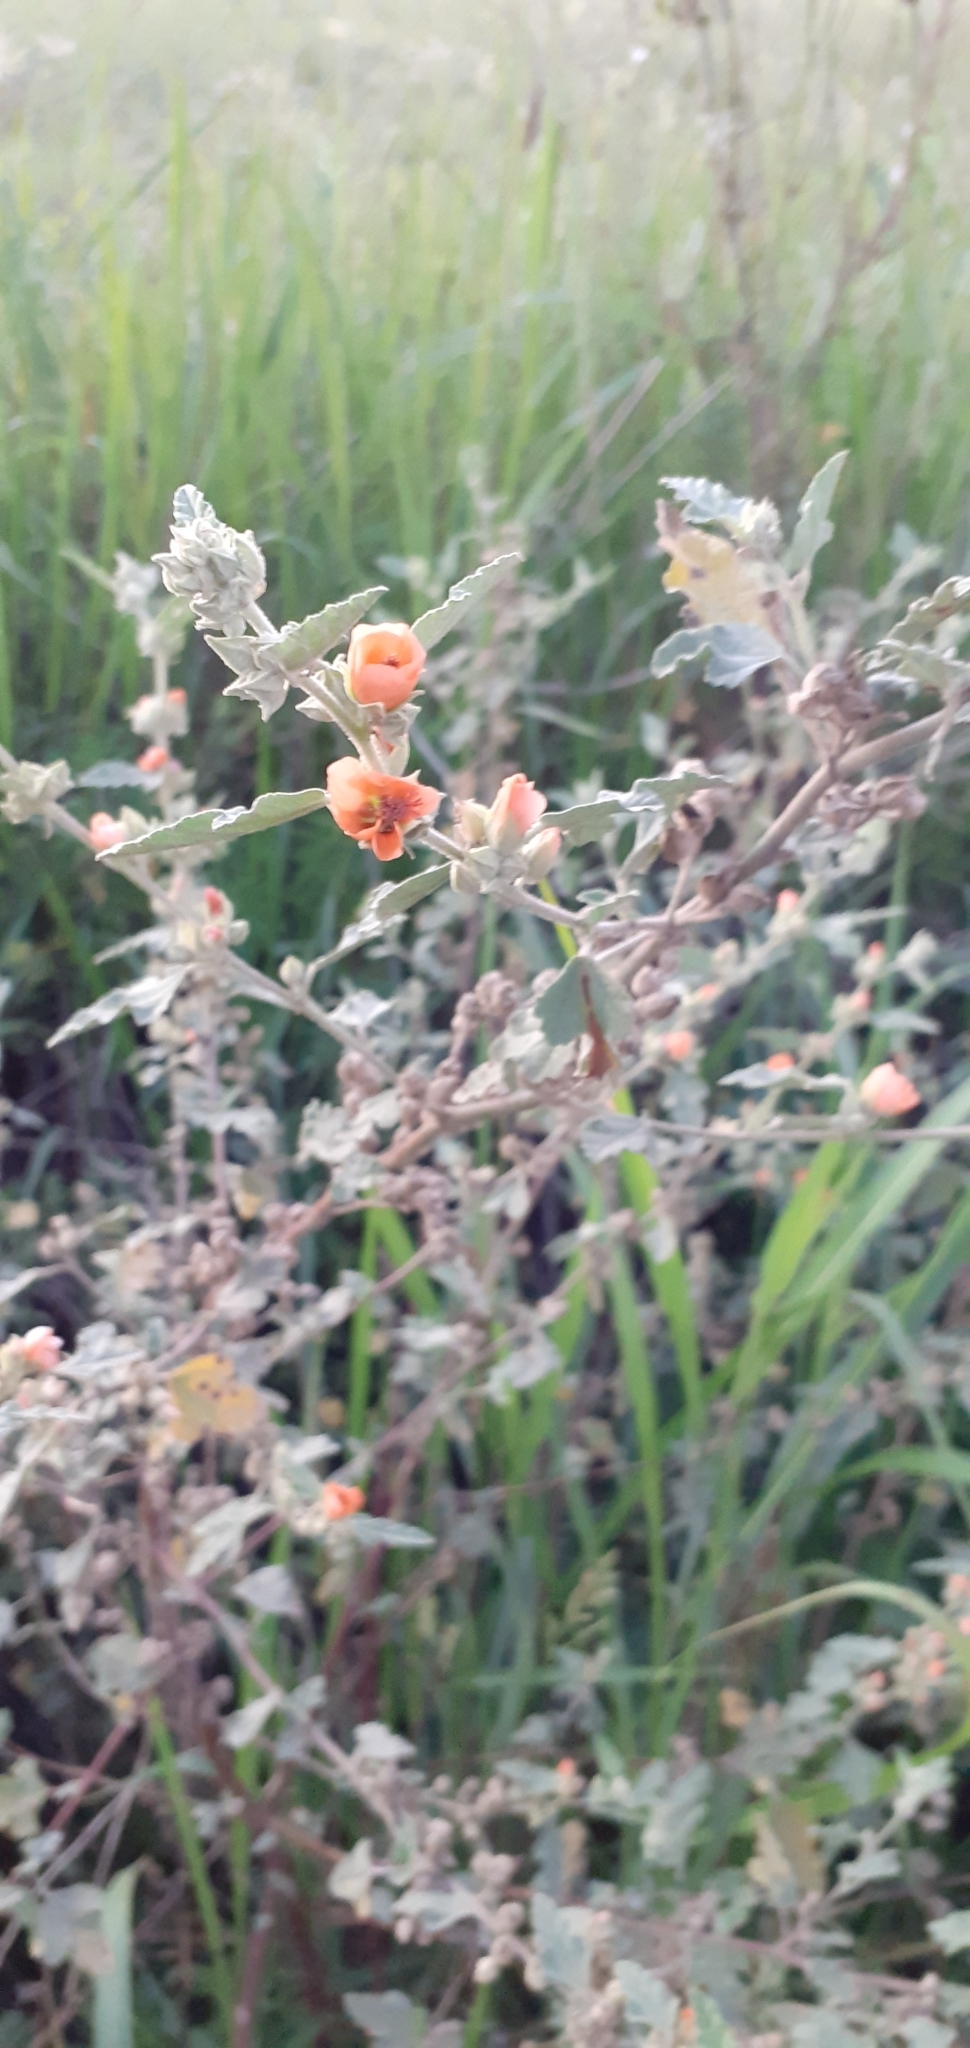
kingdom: Plantae
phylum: Tracheophyta
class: Magnoliopsida
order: Malvales
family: Malvaceae
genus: Sphaeralcea
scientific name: Sphaeralcea bonariensis
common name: Latin globemallow
